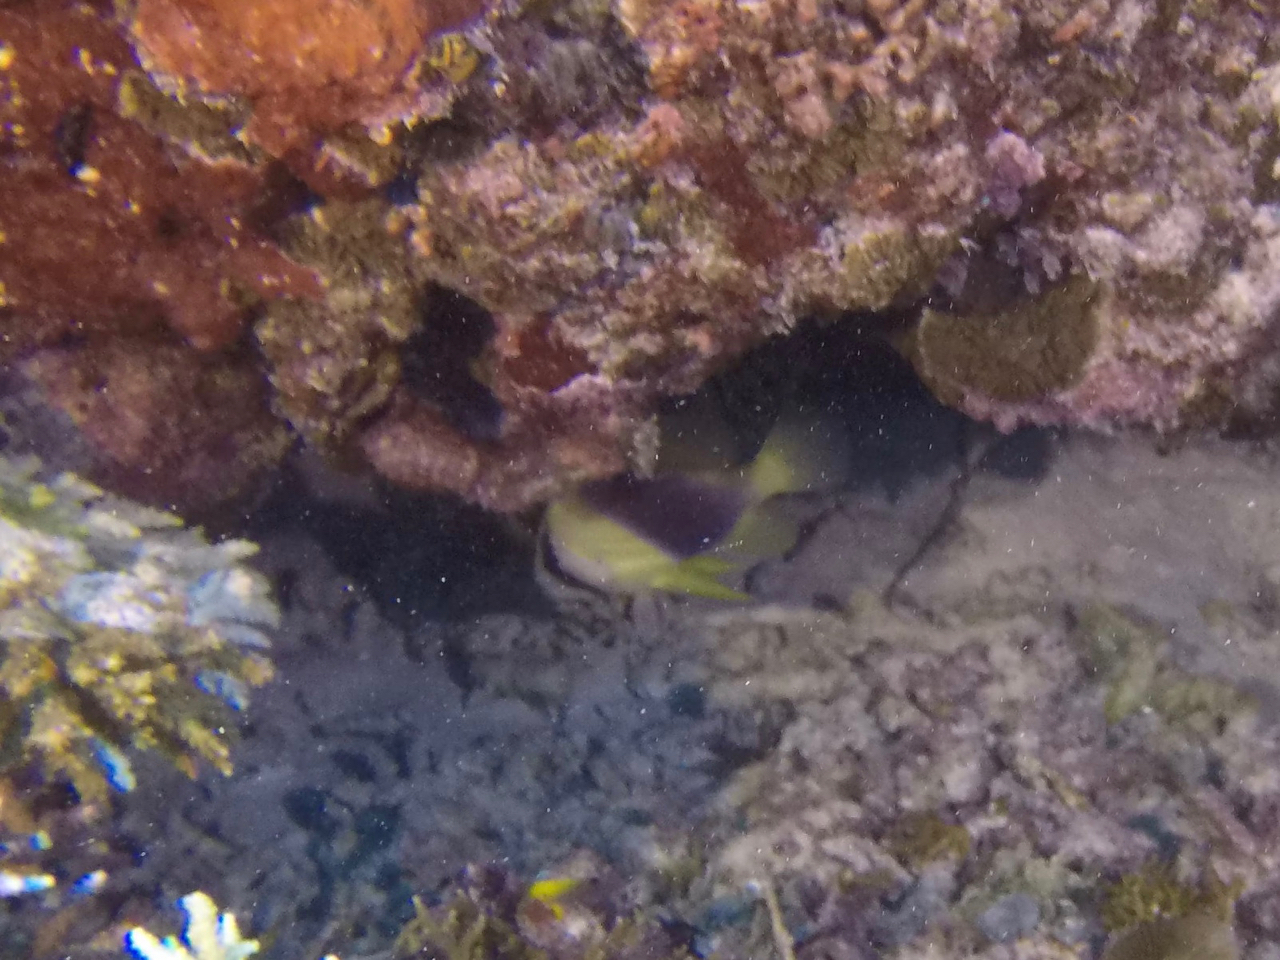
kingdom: Animalia
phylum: Chordata
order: Perciformes
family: Serranidae
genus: Diploprion
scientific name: Diploprion bifasciatum
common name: Barred soapfish
